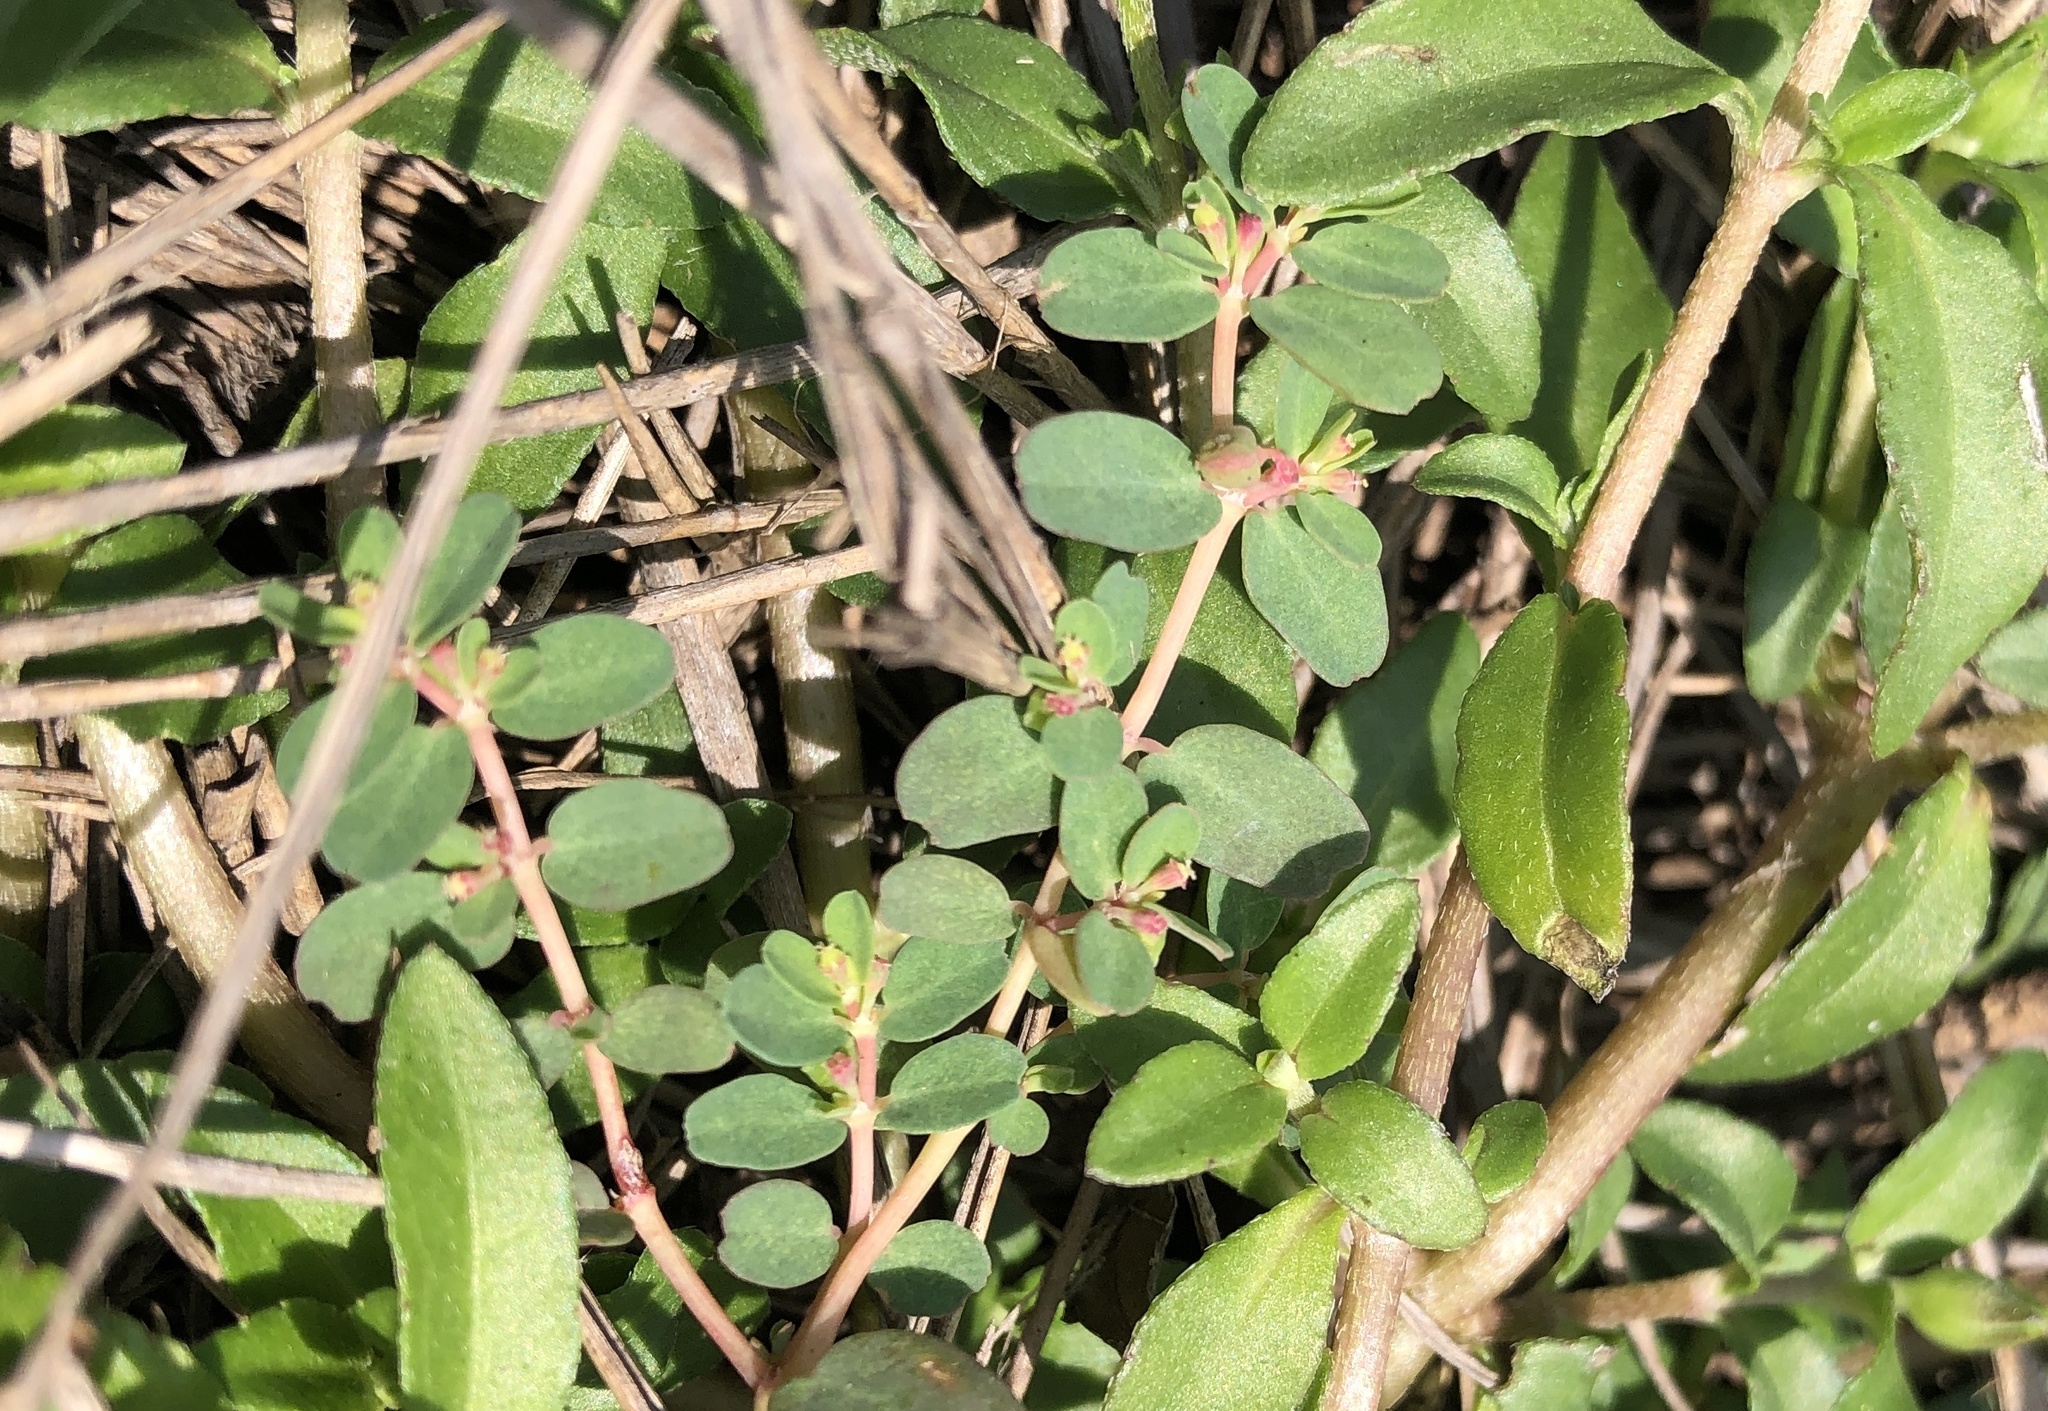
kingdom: Plantae
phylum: Tracheophyta
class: Magnoliopsida
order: Malpighiales
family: Euphorbiaceae
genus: Euphorbia
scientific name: Euphorbia taihsiensis
